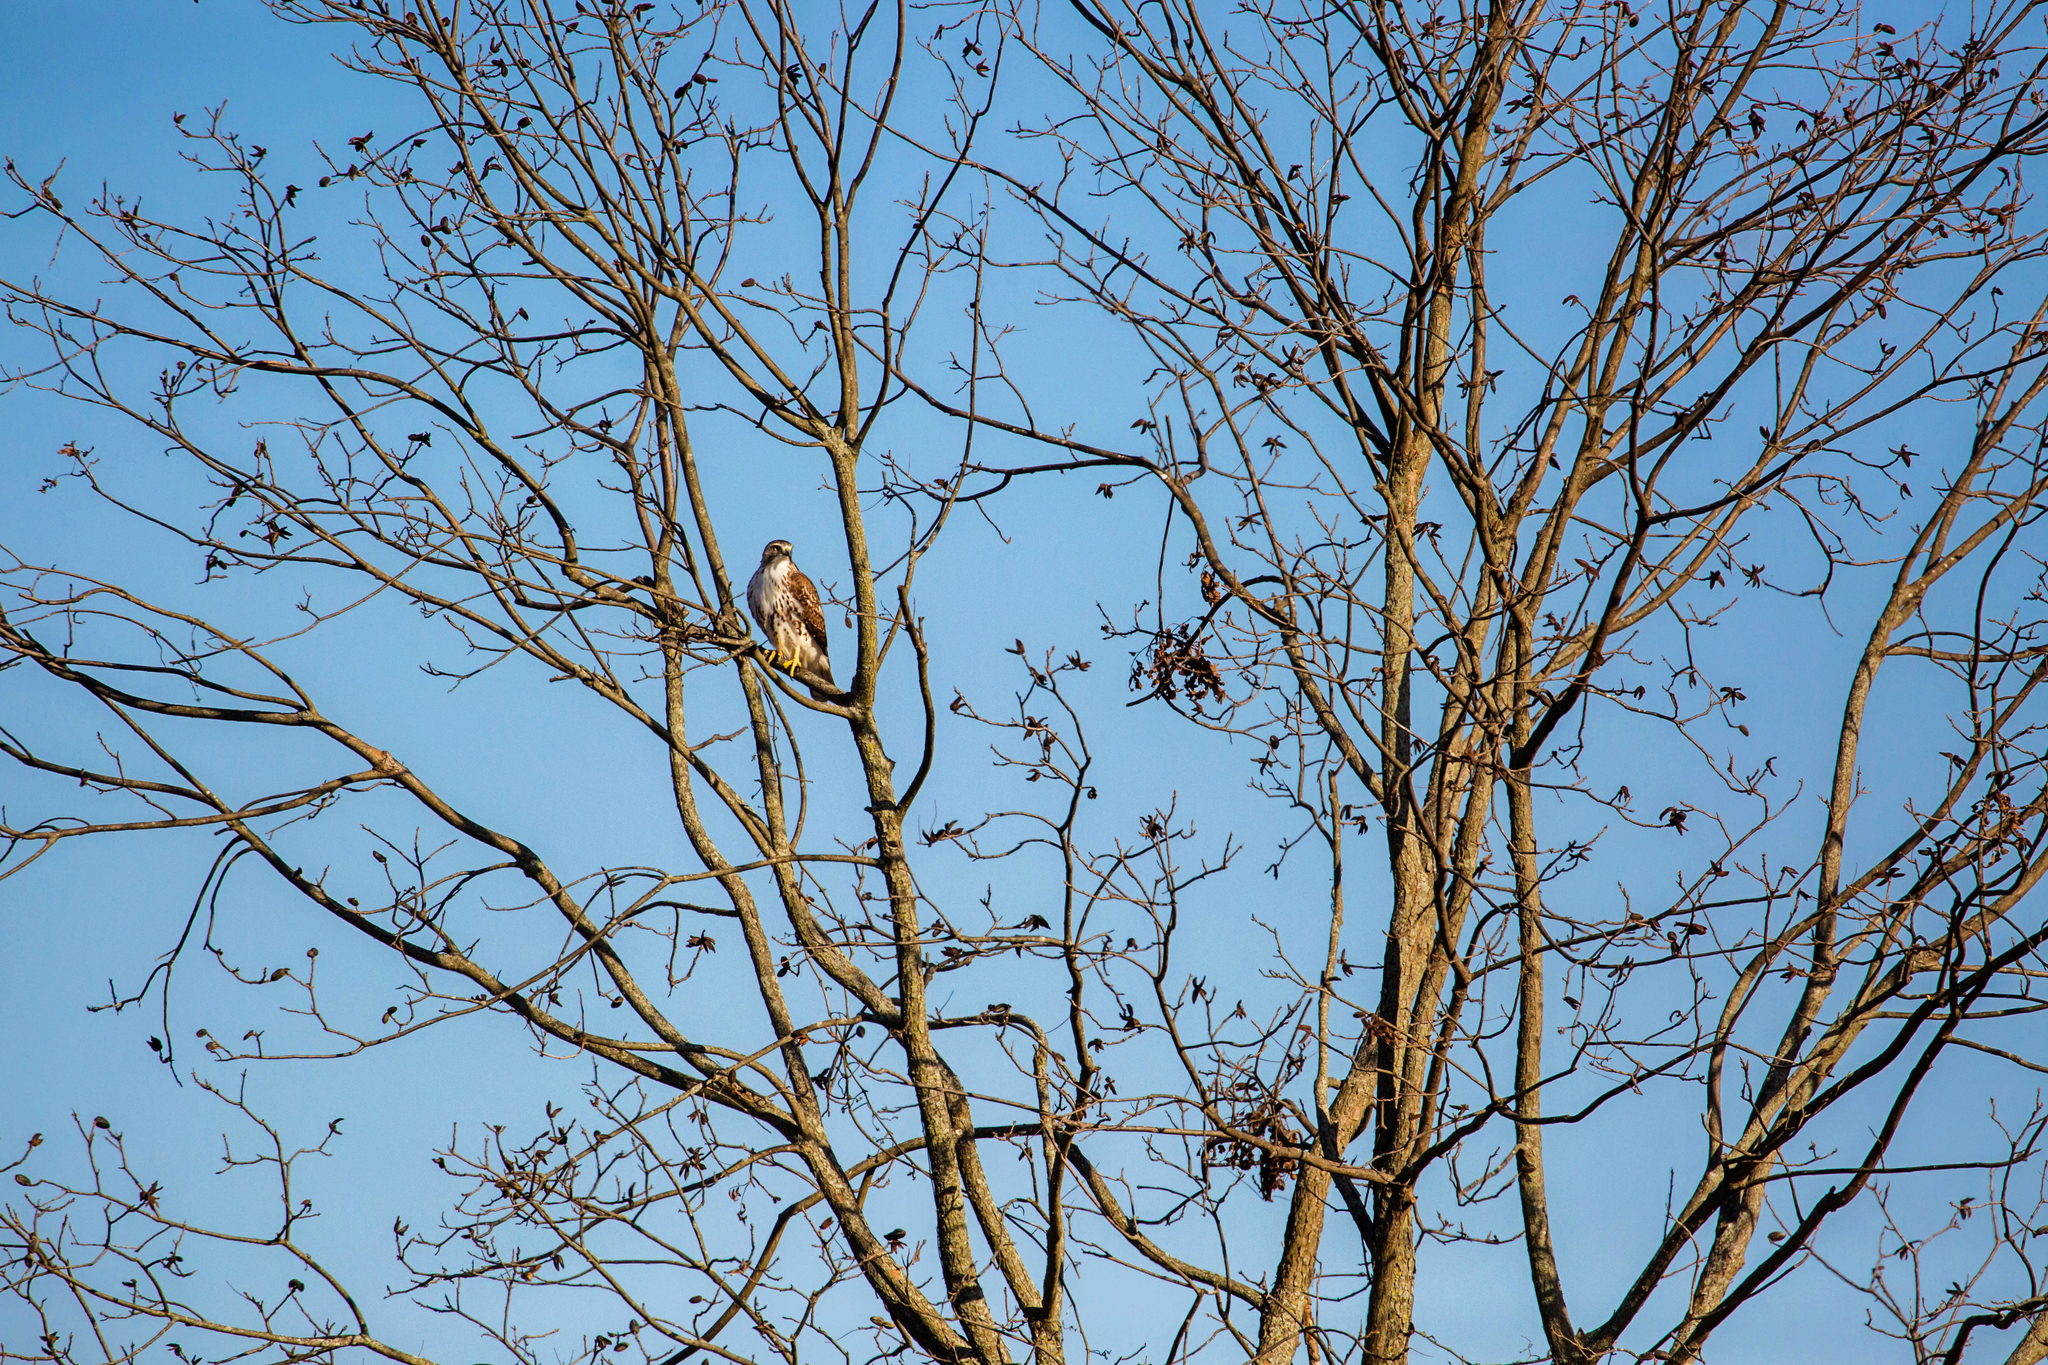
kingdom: Animalia
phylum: Chordata
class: Aves
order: Accipitriformes
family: Accipitridae
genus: Buteo
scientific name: Buteo jamaicensis
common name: Red-tailed hawk
